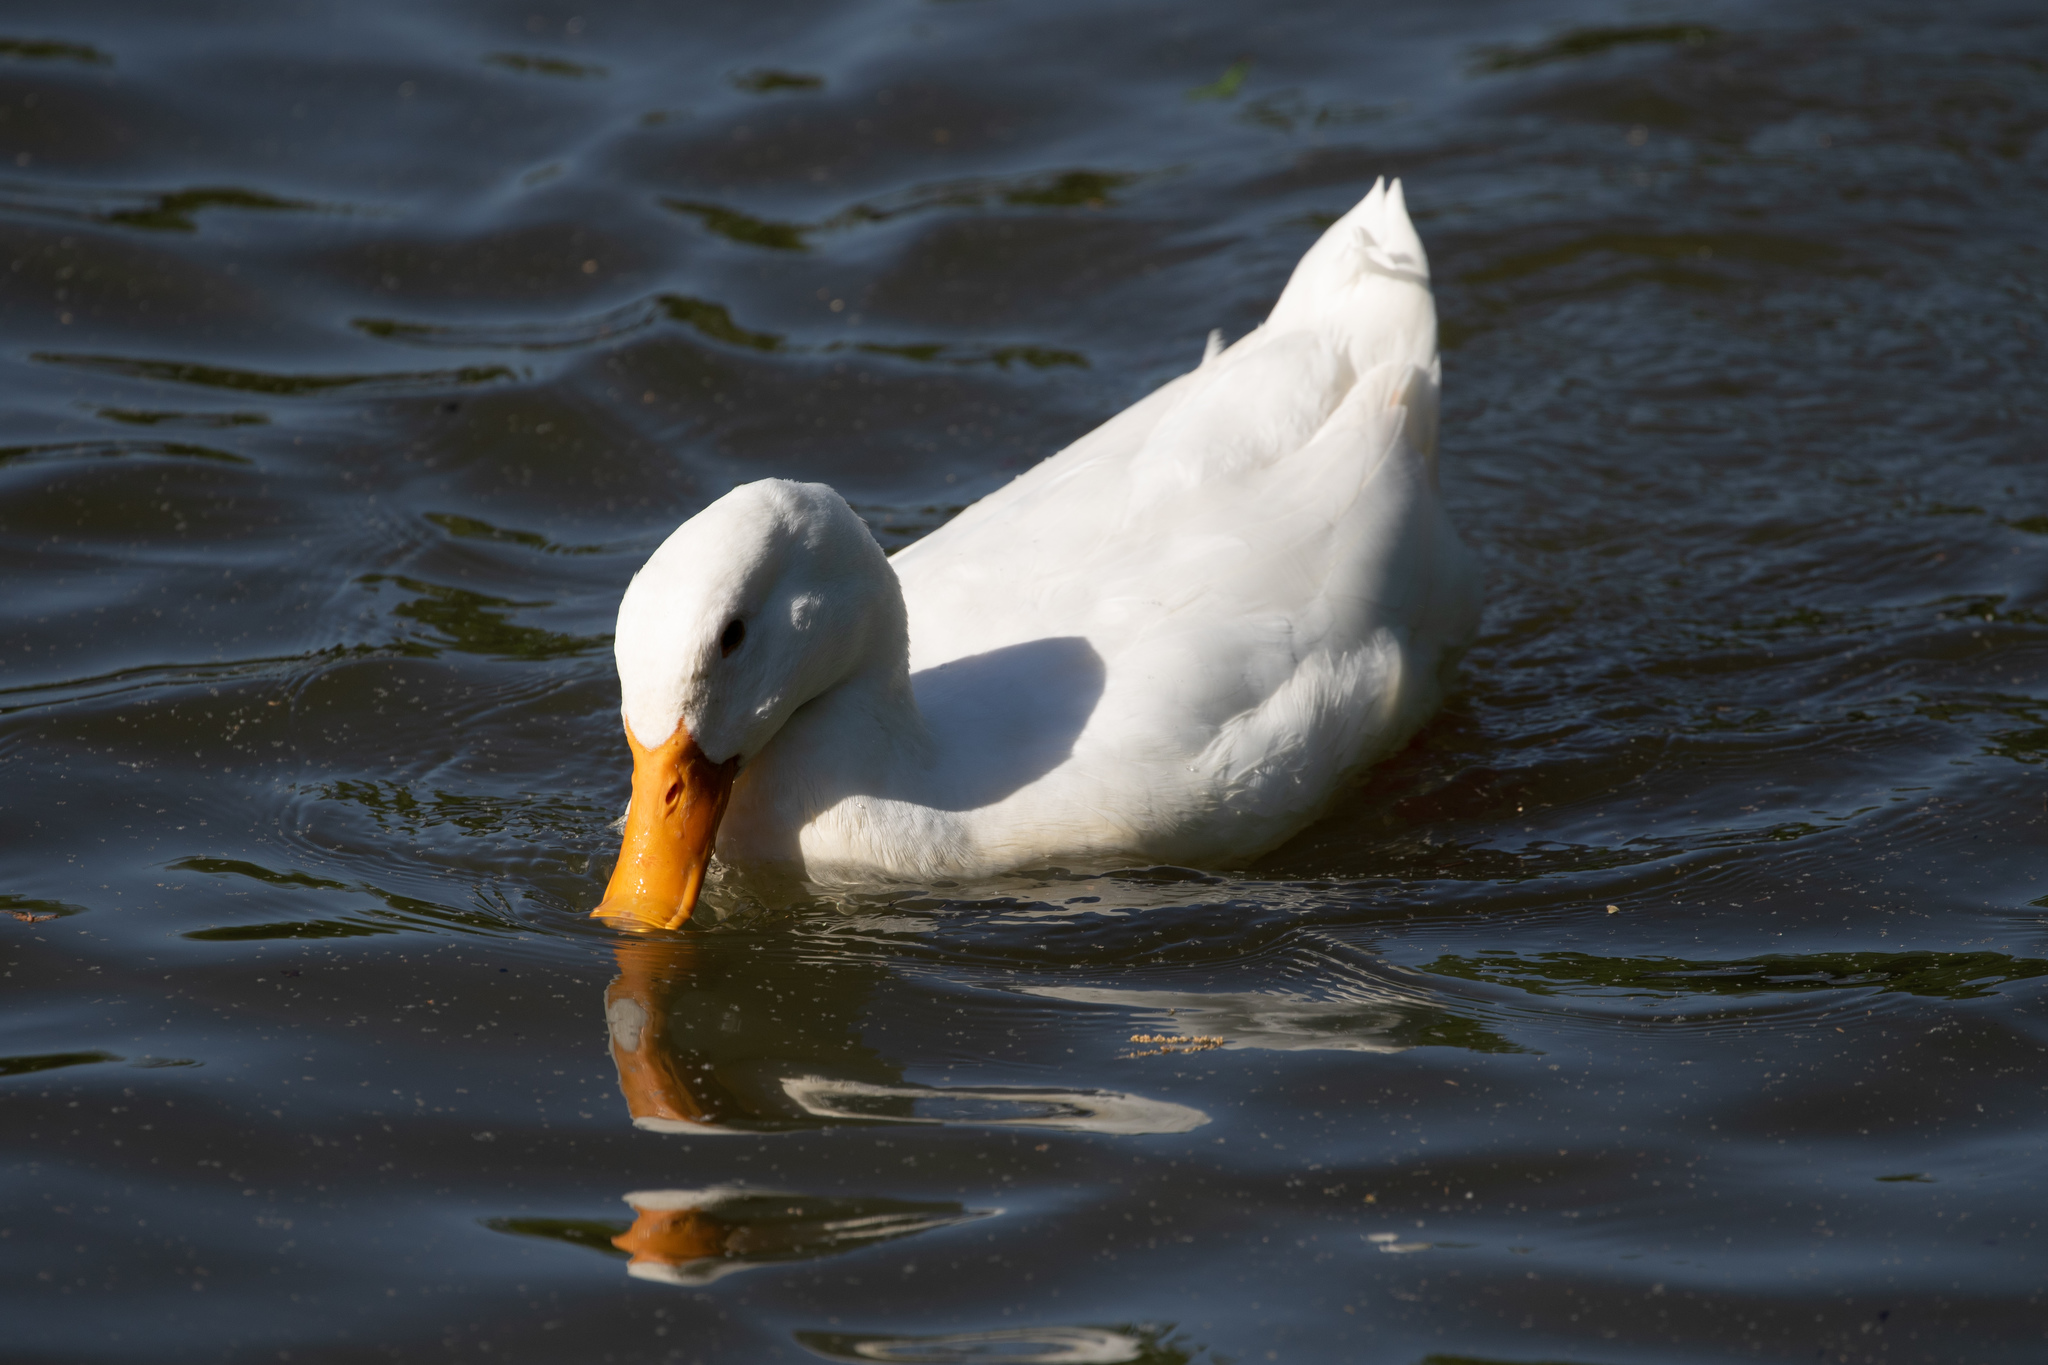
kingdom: Animalia
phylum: Chordata
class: Aves
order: Anseriformes
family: Anatidae
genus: Anas
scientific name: Anas platyrhynchos
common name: Mallard
